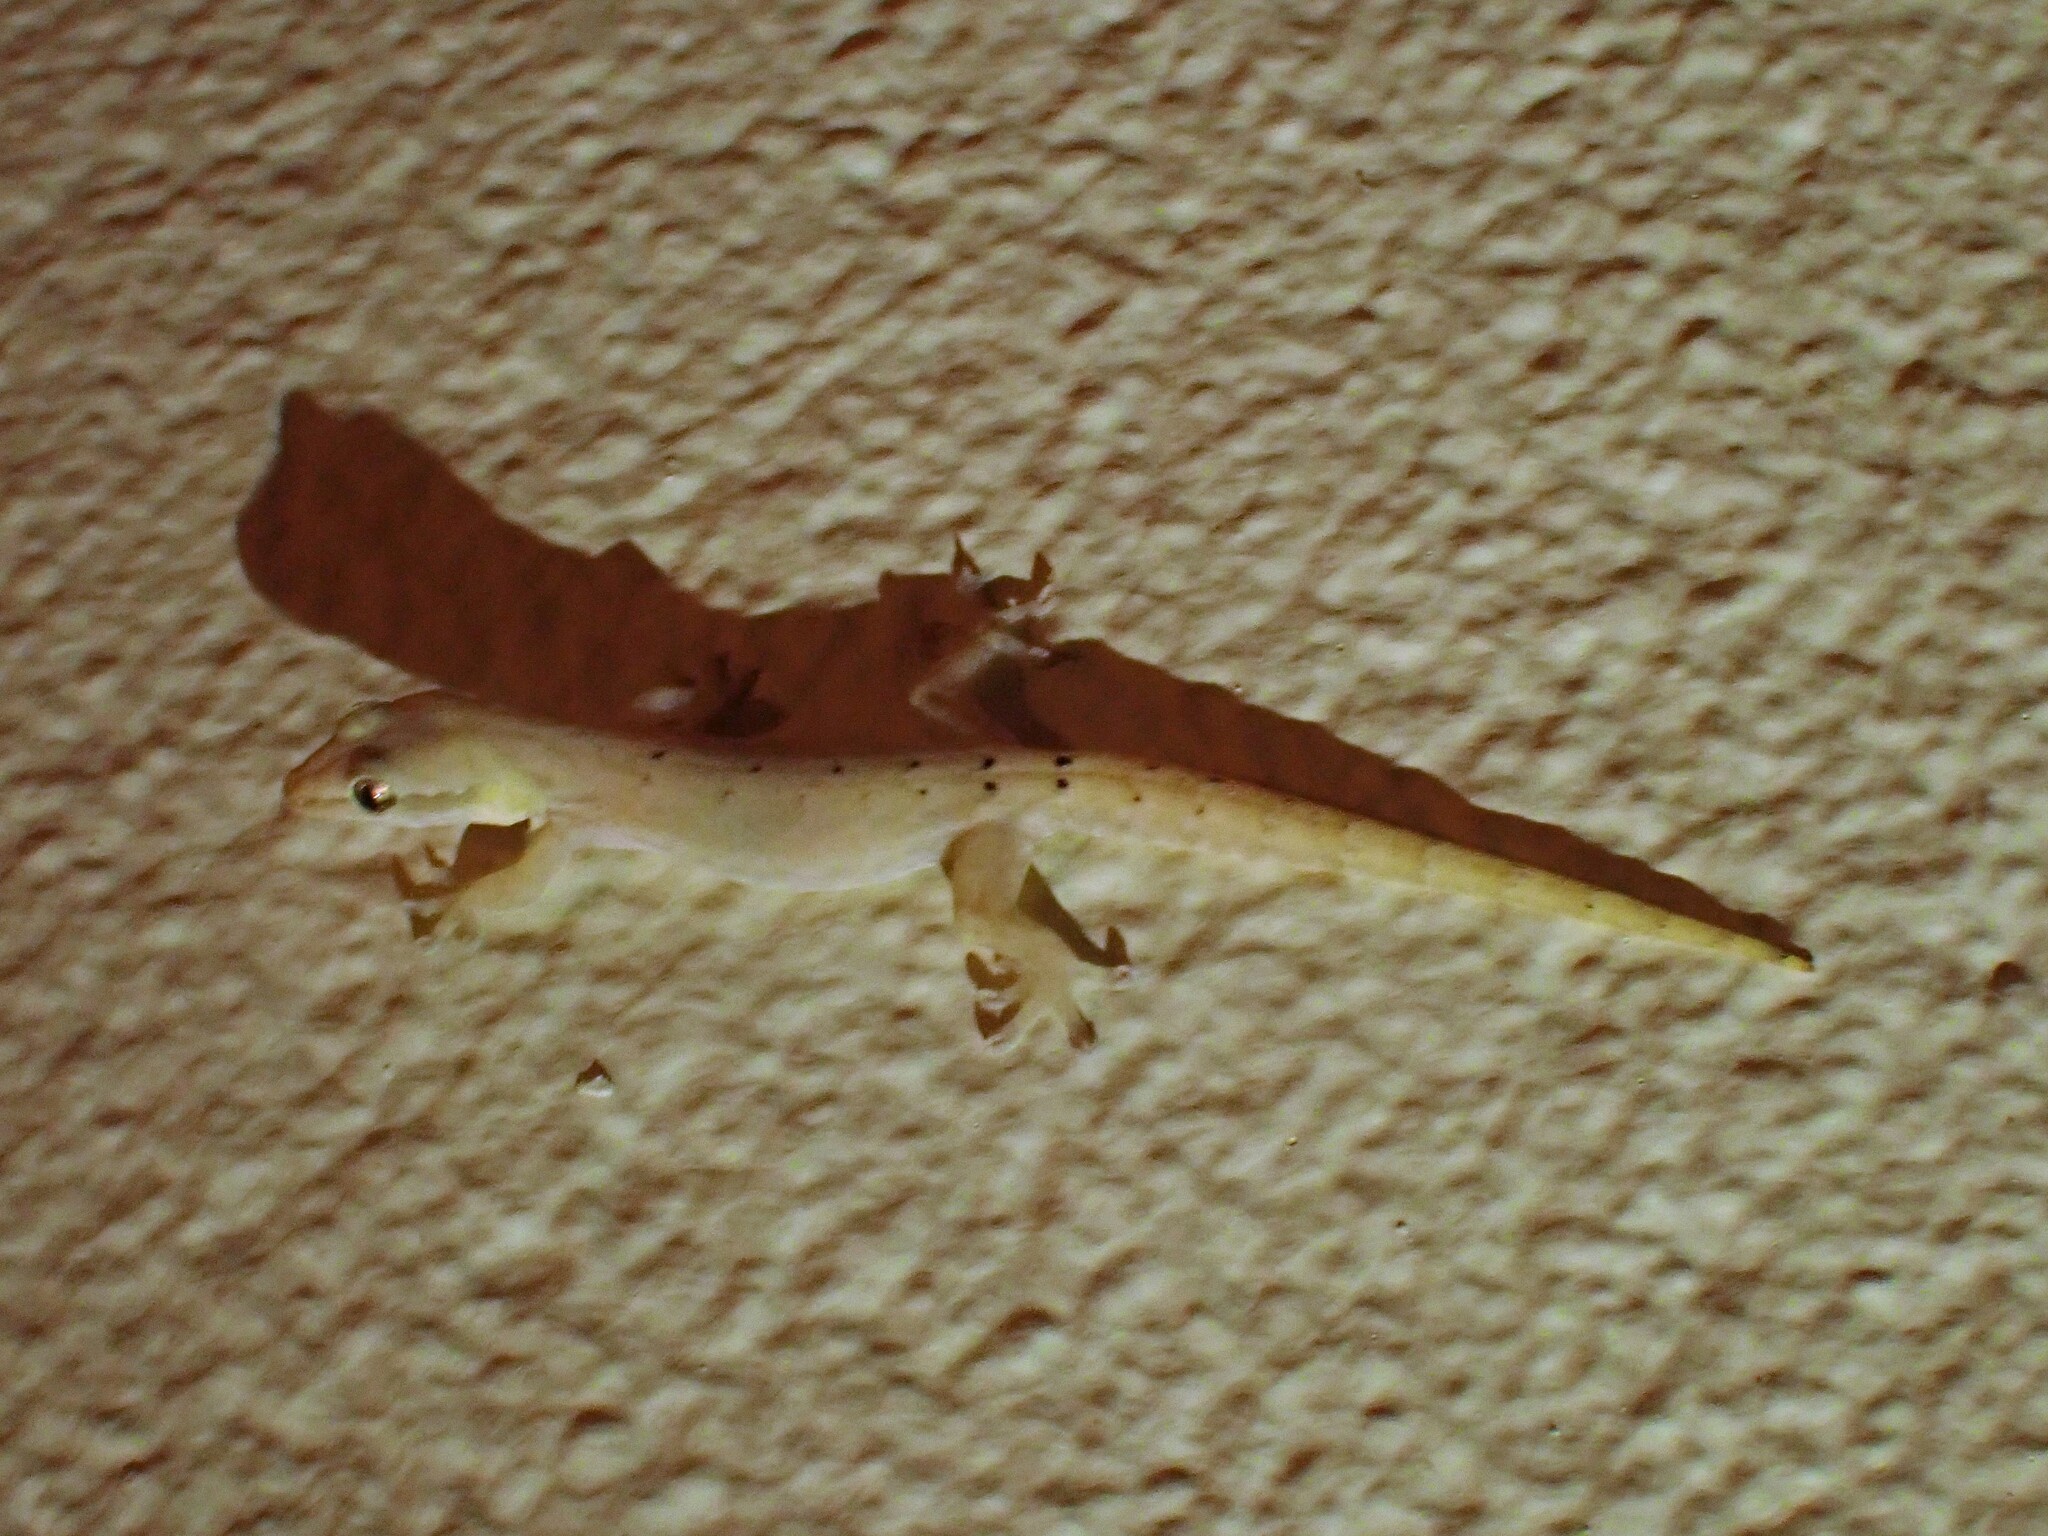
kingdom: Animalia
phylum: Chordata
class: Squamata
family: Gekkonidae
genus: Lepidodactylus
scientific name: Lepidodactylus lugubris
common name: Mourning gecko
